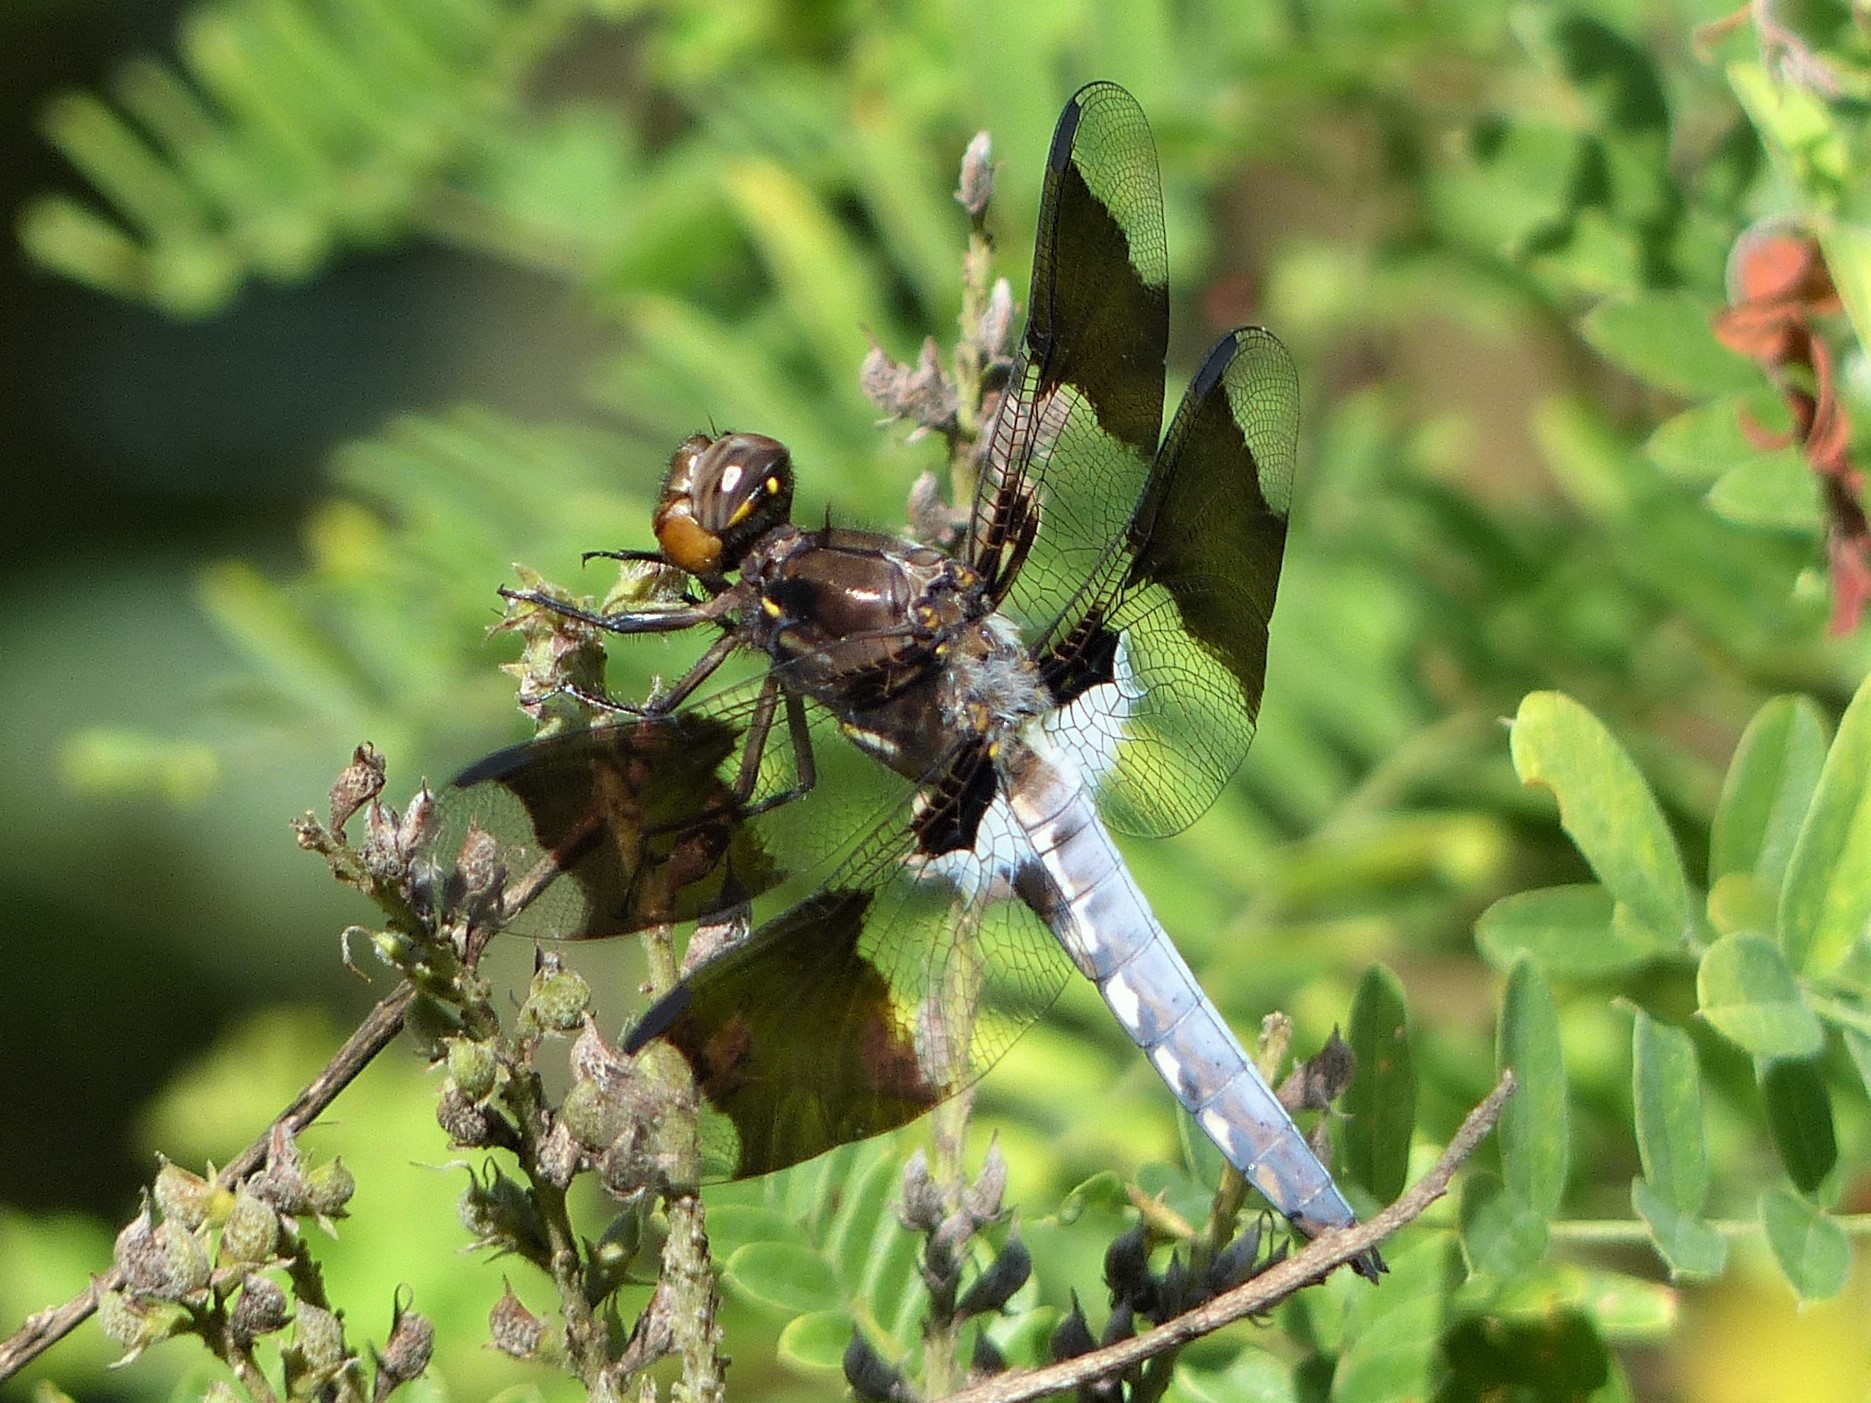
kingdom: Animalia
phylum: Arthropoda
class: Insecta
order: Odonata
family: Libellulidae
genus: Plathemis
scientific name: Plathemis lydia
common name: Common whitetail
